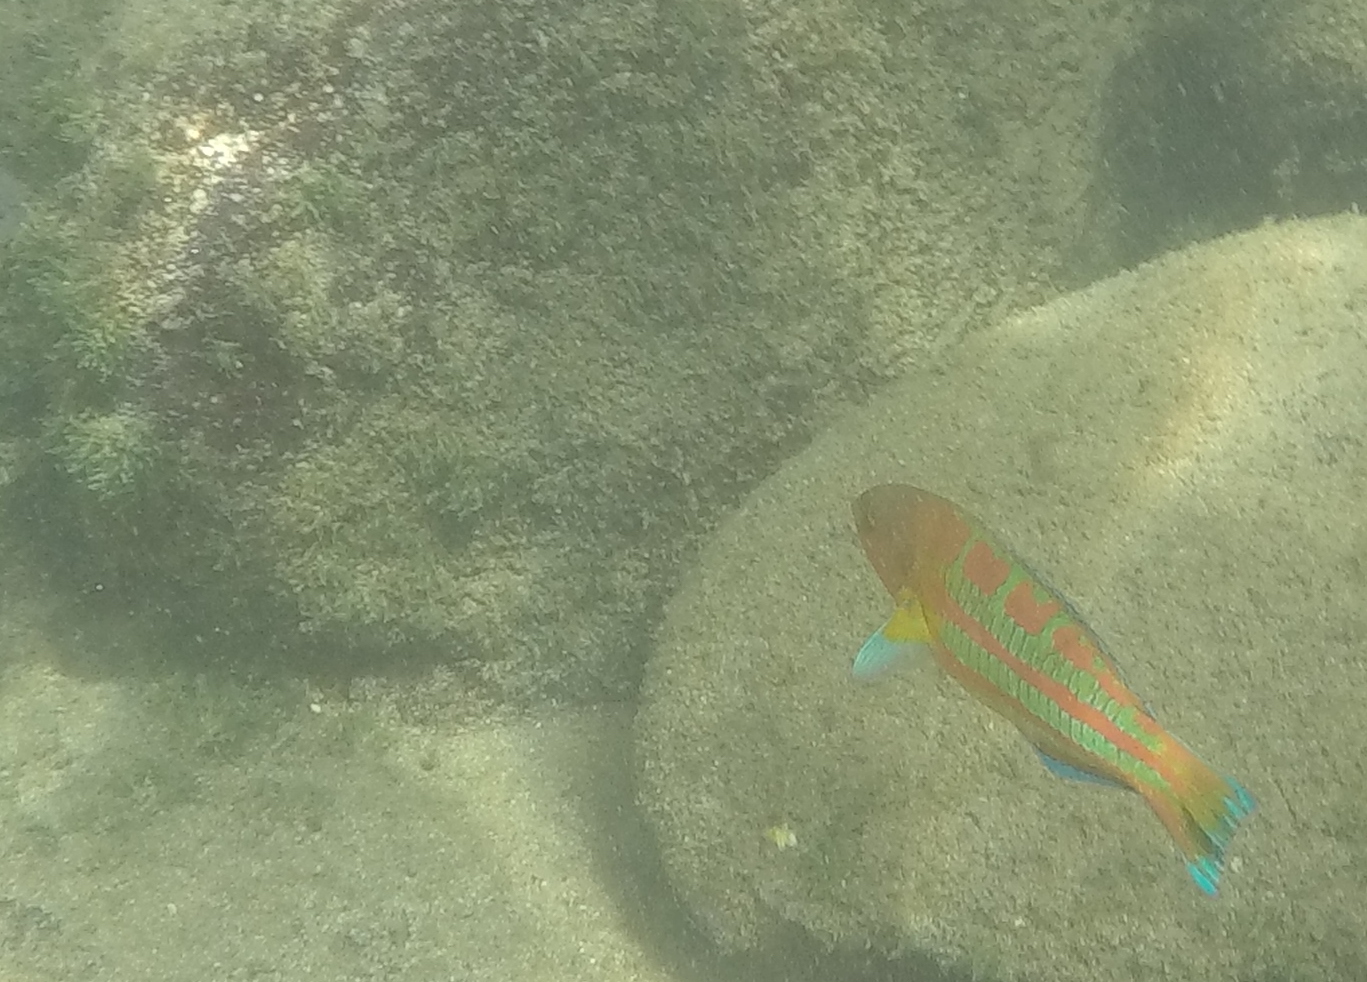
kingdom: Animalia
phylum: Chordata
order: Perciformes
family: Labridae
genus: Thalassoma
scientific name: Thalassoma trilobatum
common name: Christmas wrasse
